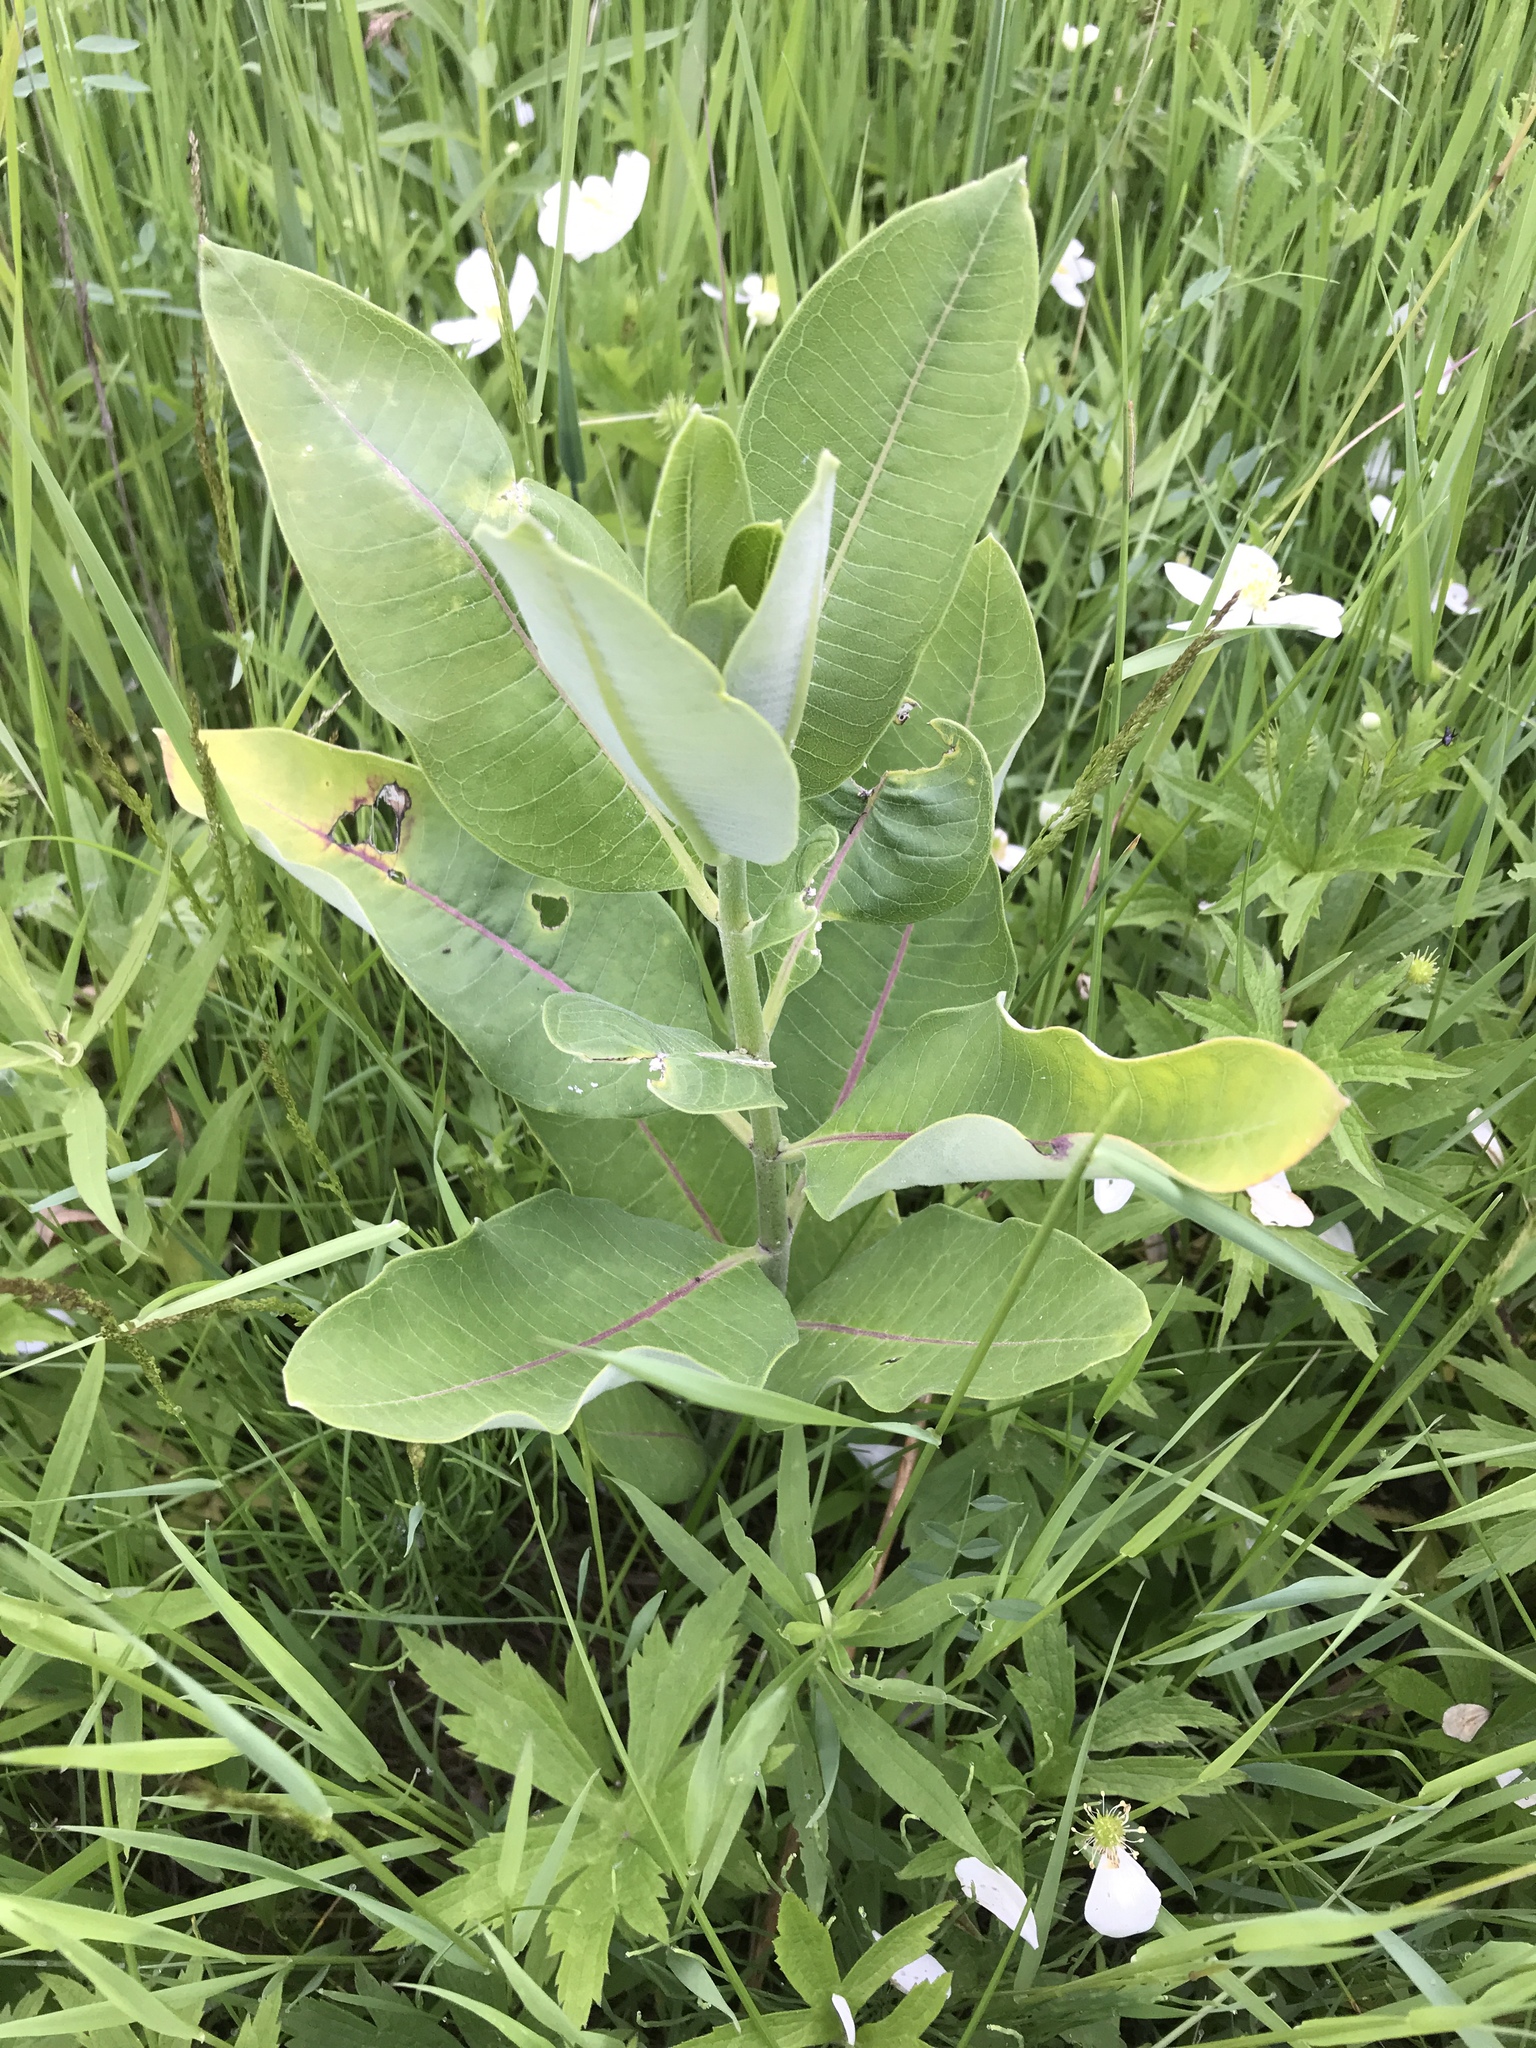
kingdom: Plantae
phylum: Tracheophyta
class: Magnoliopsida
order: Gentianales
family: Apocynaceae
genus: Asclepias
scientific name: Asclepias syriaca
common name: Common milkweed
